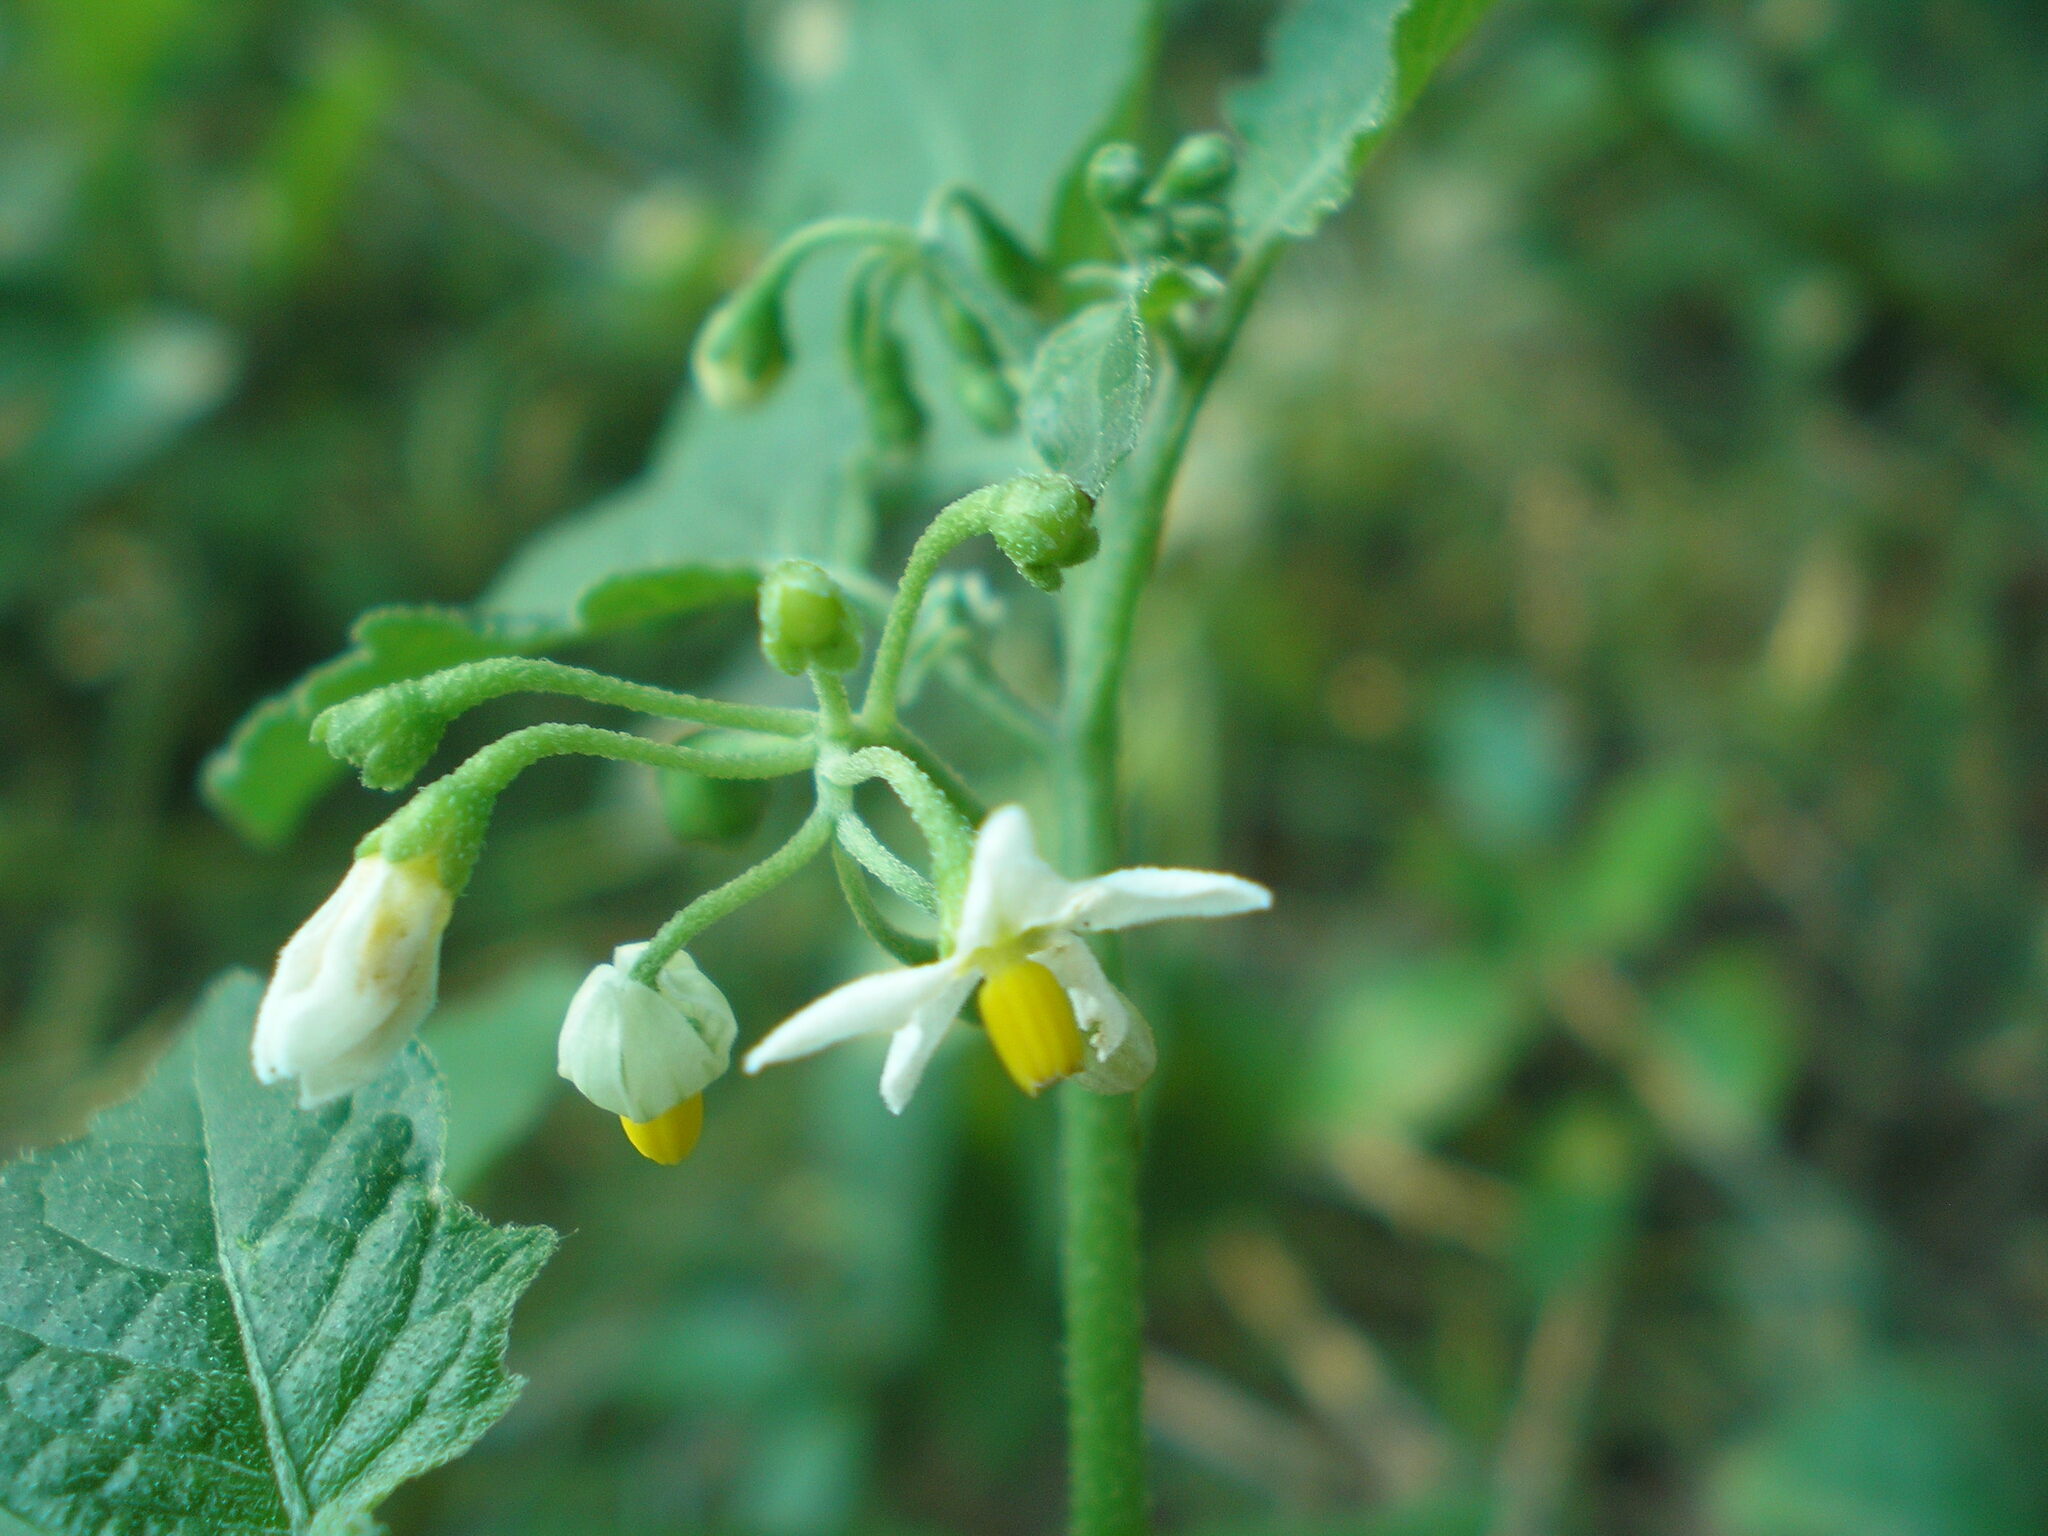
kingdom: Plantae
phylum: Tracheophyta
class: Magnoliopsida
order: Solanales
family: Solanaceae
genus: Solanum
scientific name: Solanum nigrum
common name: Black nightshade
